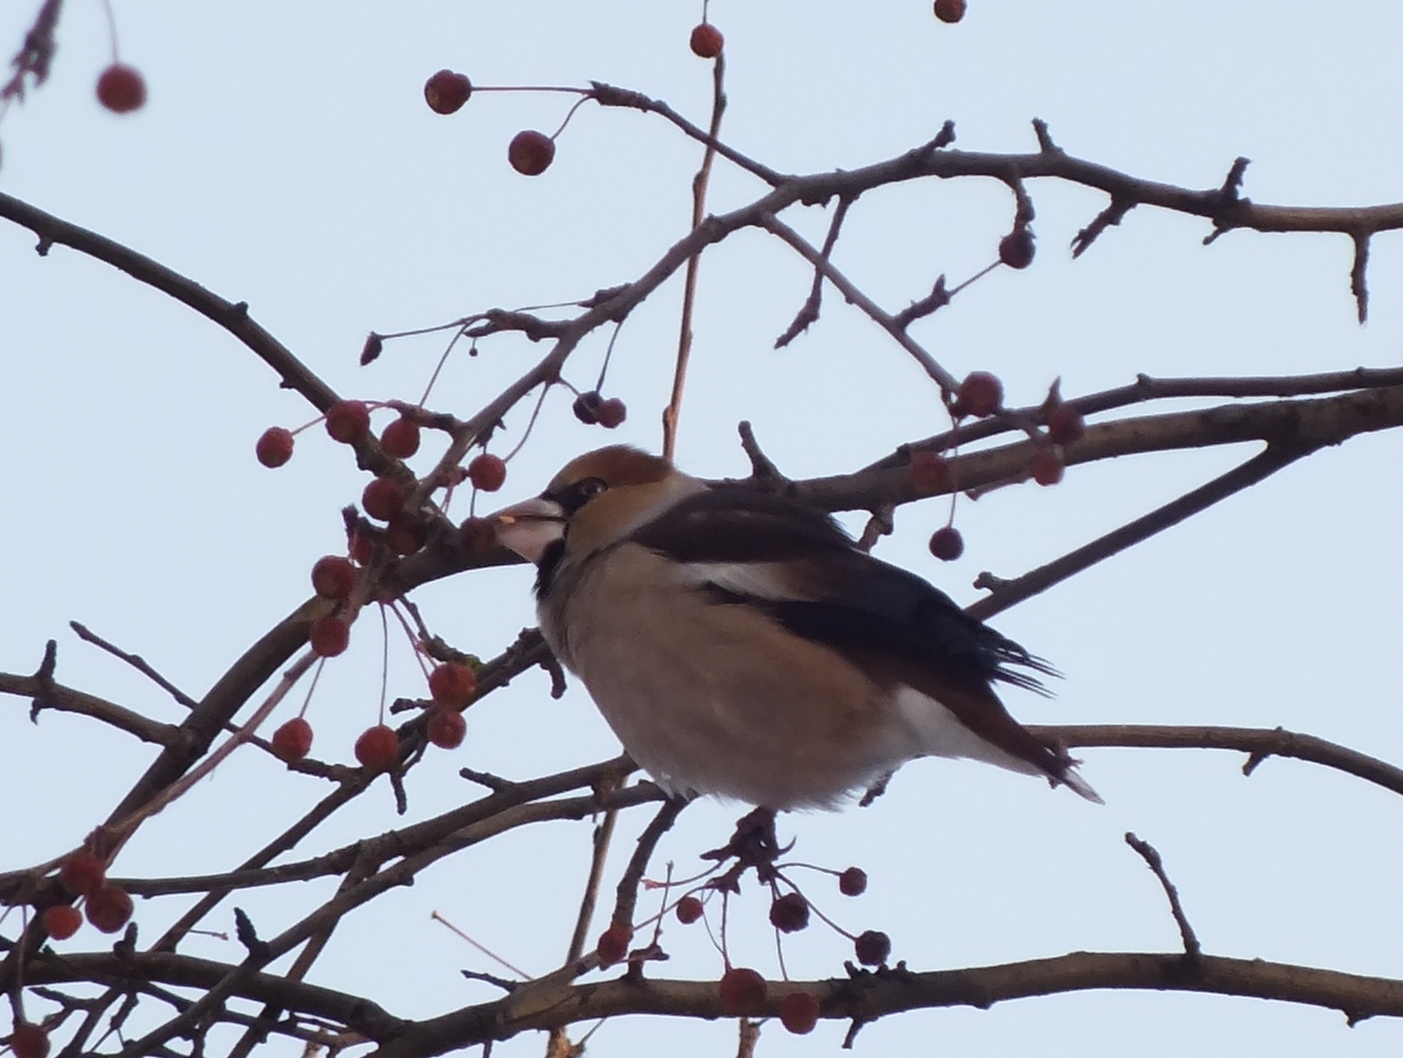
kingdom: Animalia
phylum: Chordata
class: Aves
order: Passeriformes
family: Fringillidae
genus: Coccothraustes
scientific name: Coccothraustes coccothraustes
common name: Hawfinch
